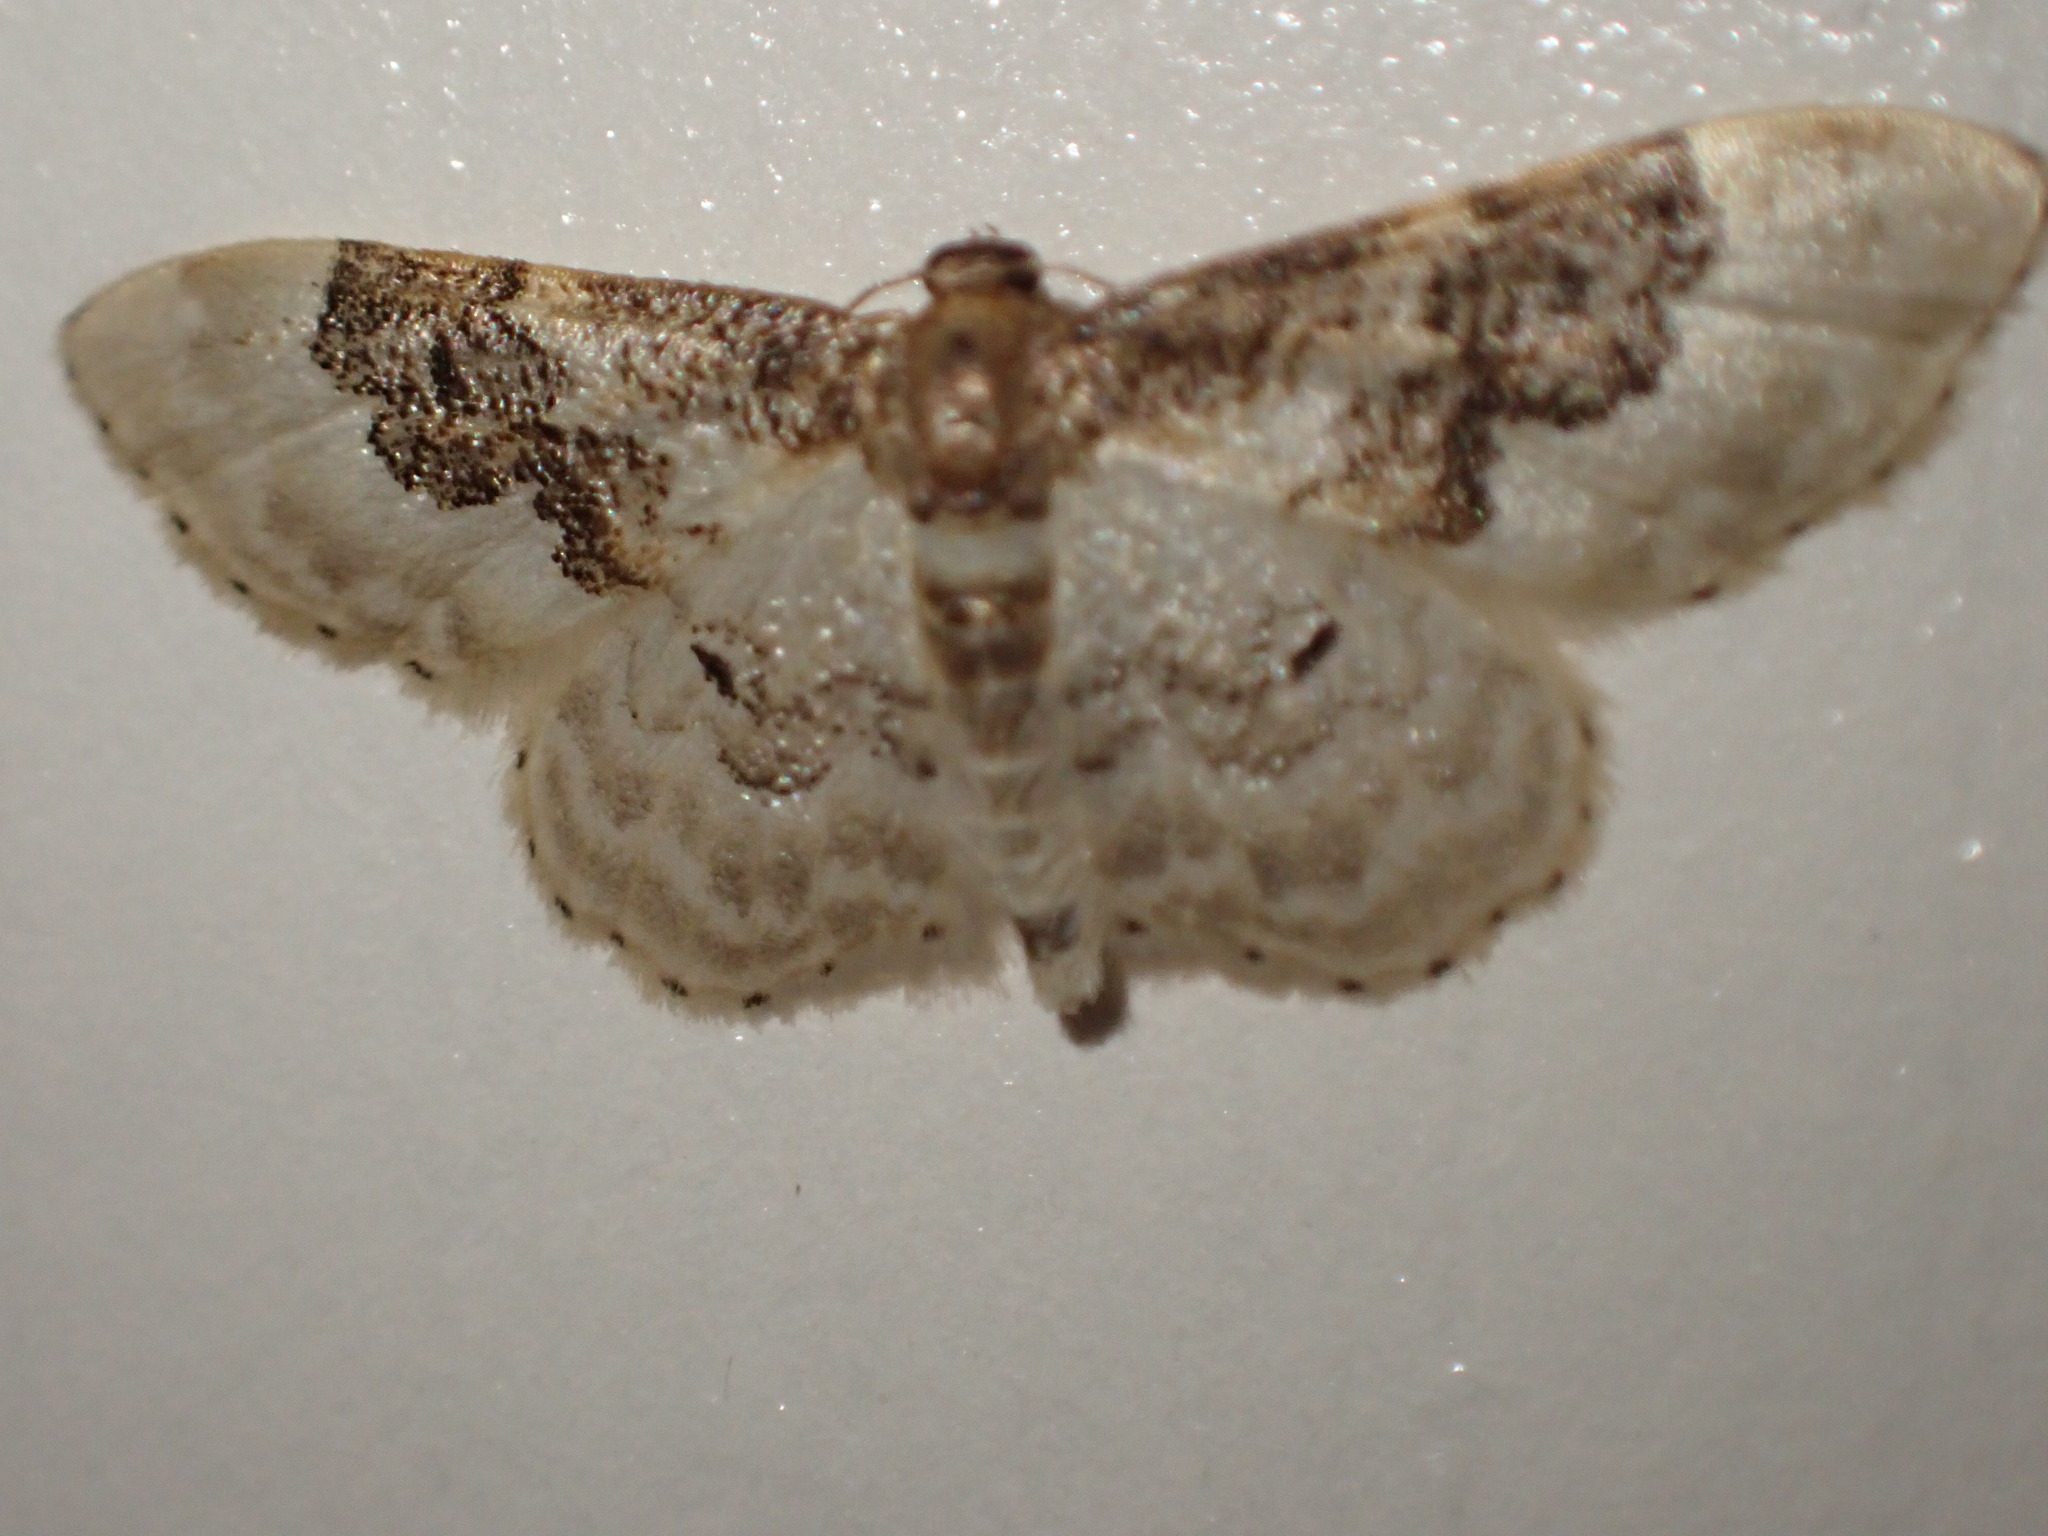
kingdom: Animalia
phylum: Arthropoda
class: Insecta
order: Lepidoptera
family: Geometridae
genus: Idaea
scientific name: Idaea rusticata
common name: Least carpet
